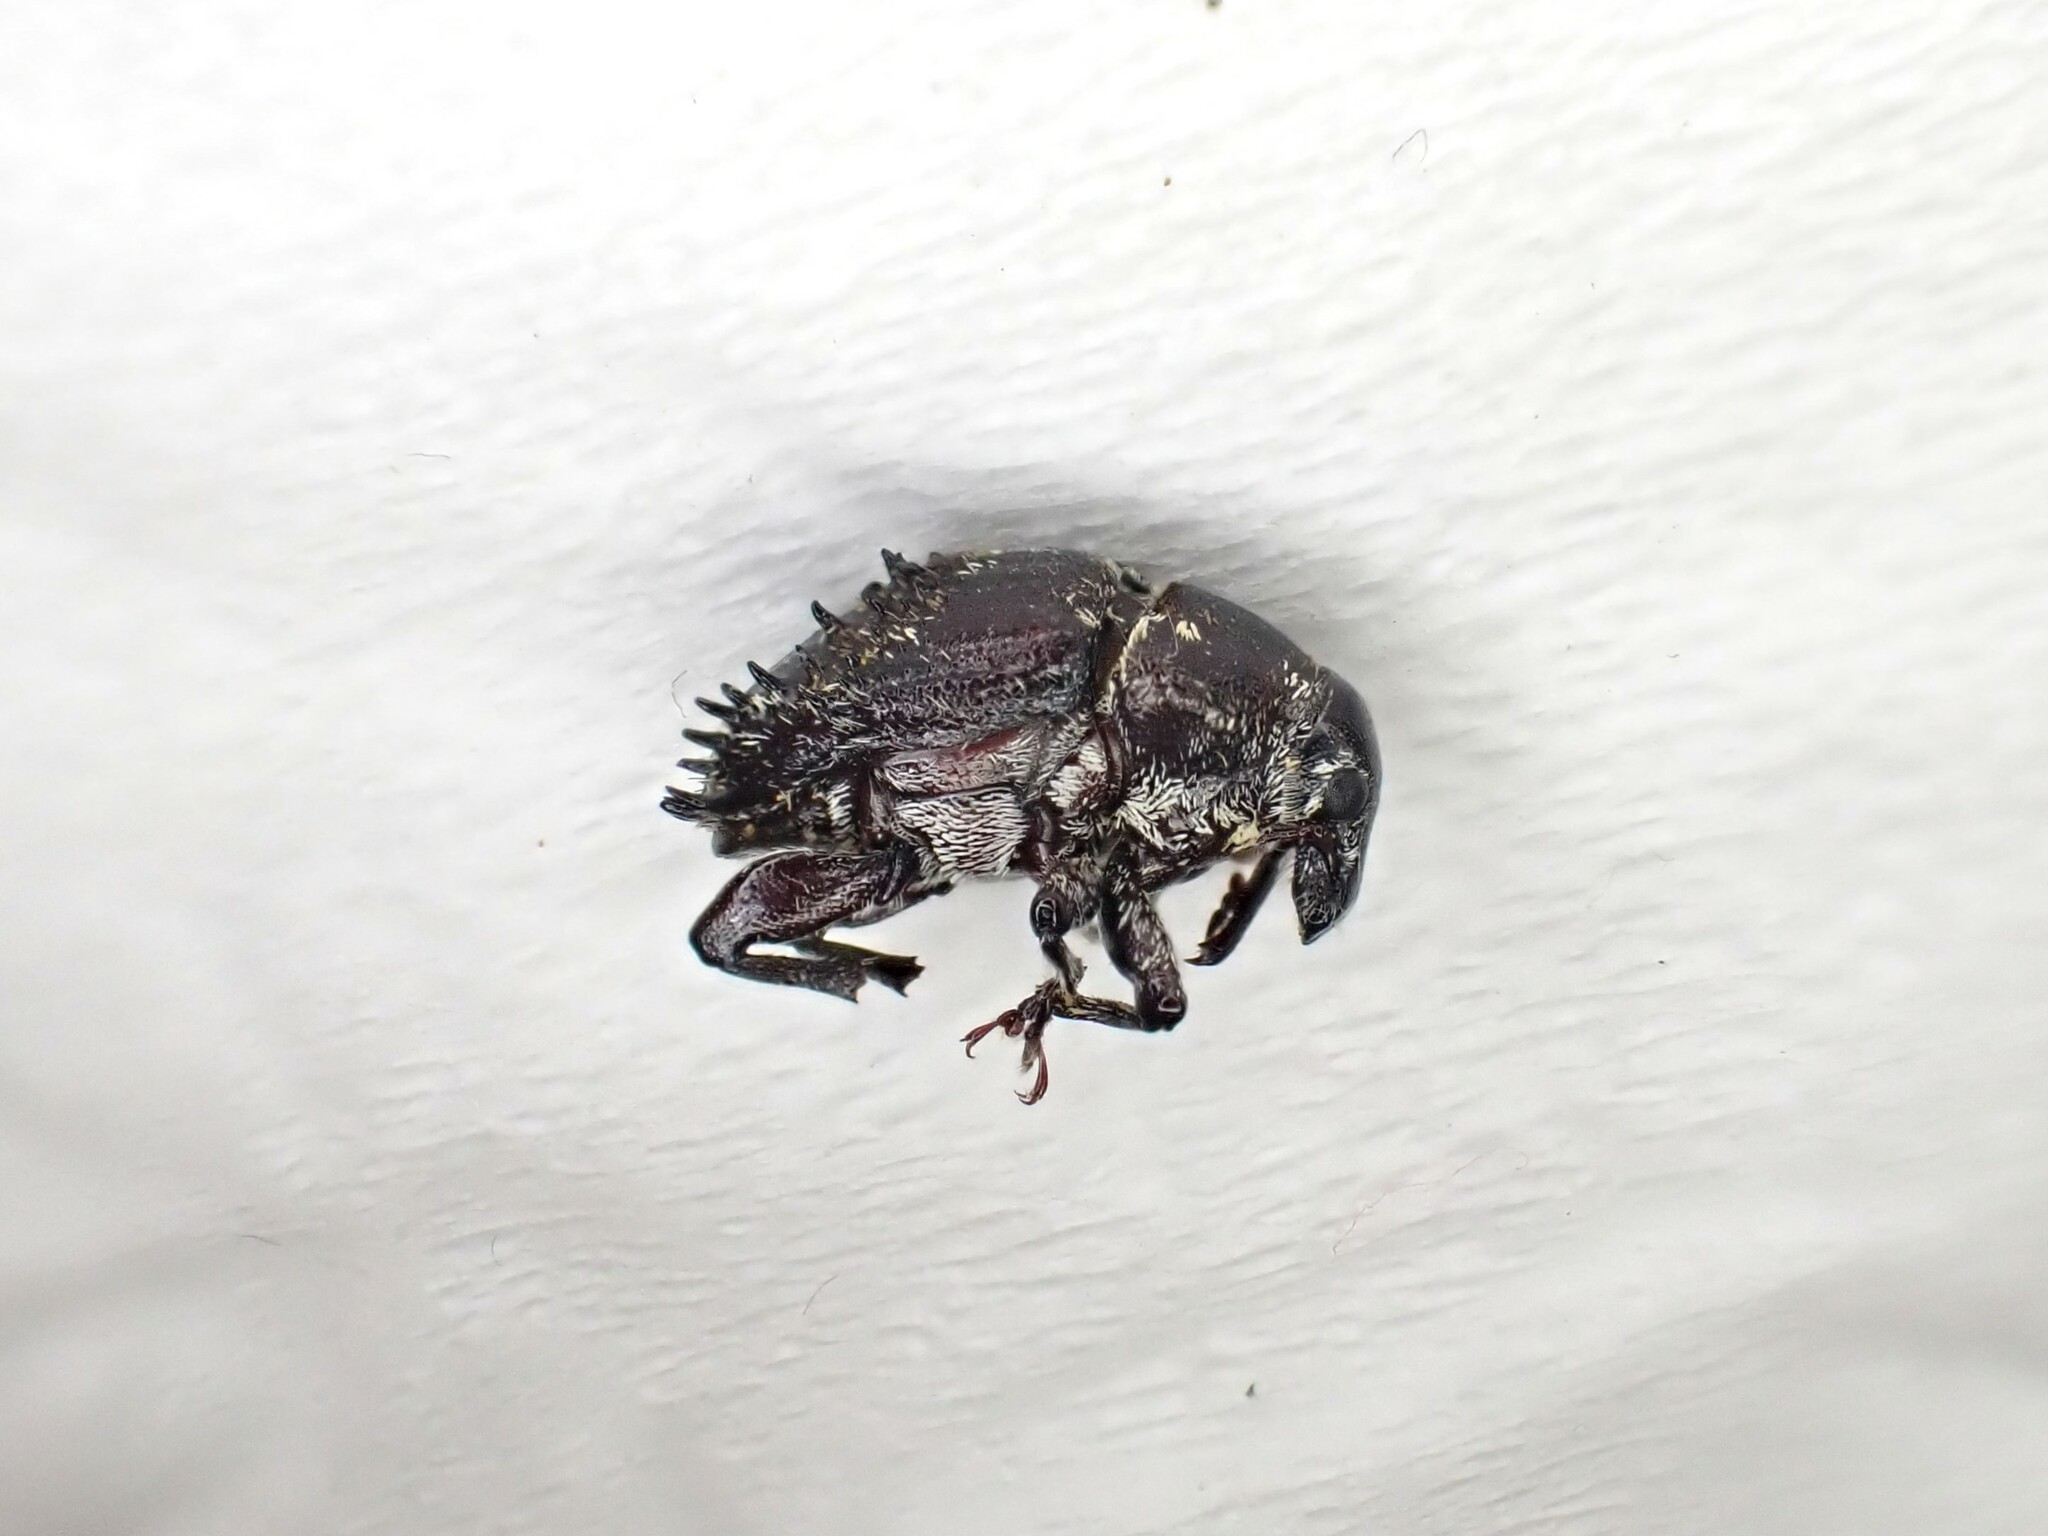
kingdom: Animalia
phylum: Arthropoda
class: Insecta
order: Coleoptera
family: Curculionidae
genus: Psepholax
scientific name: Psepholax coronatus
